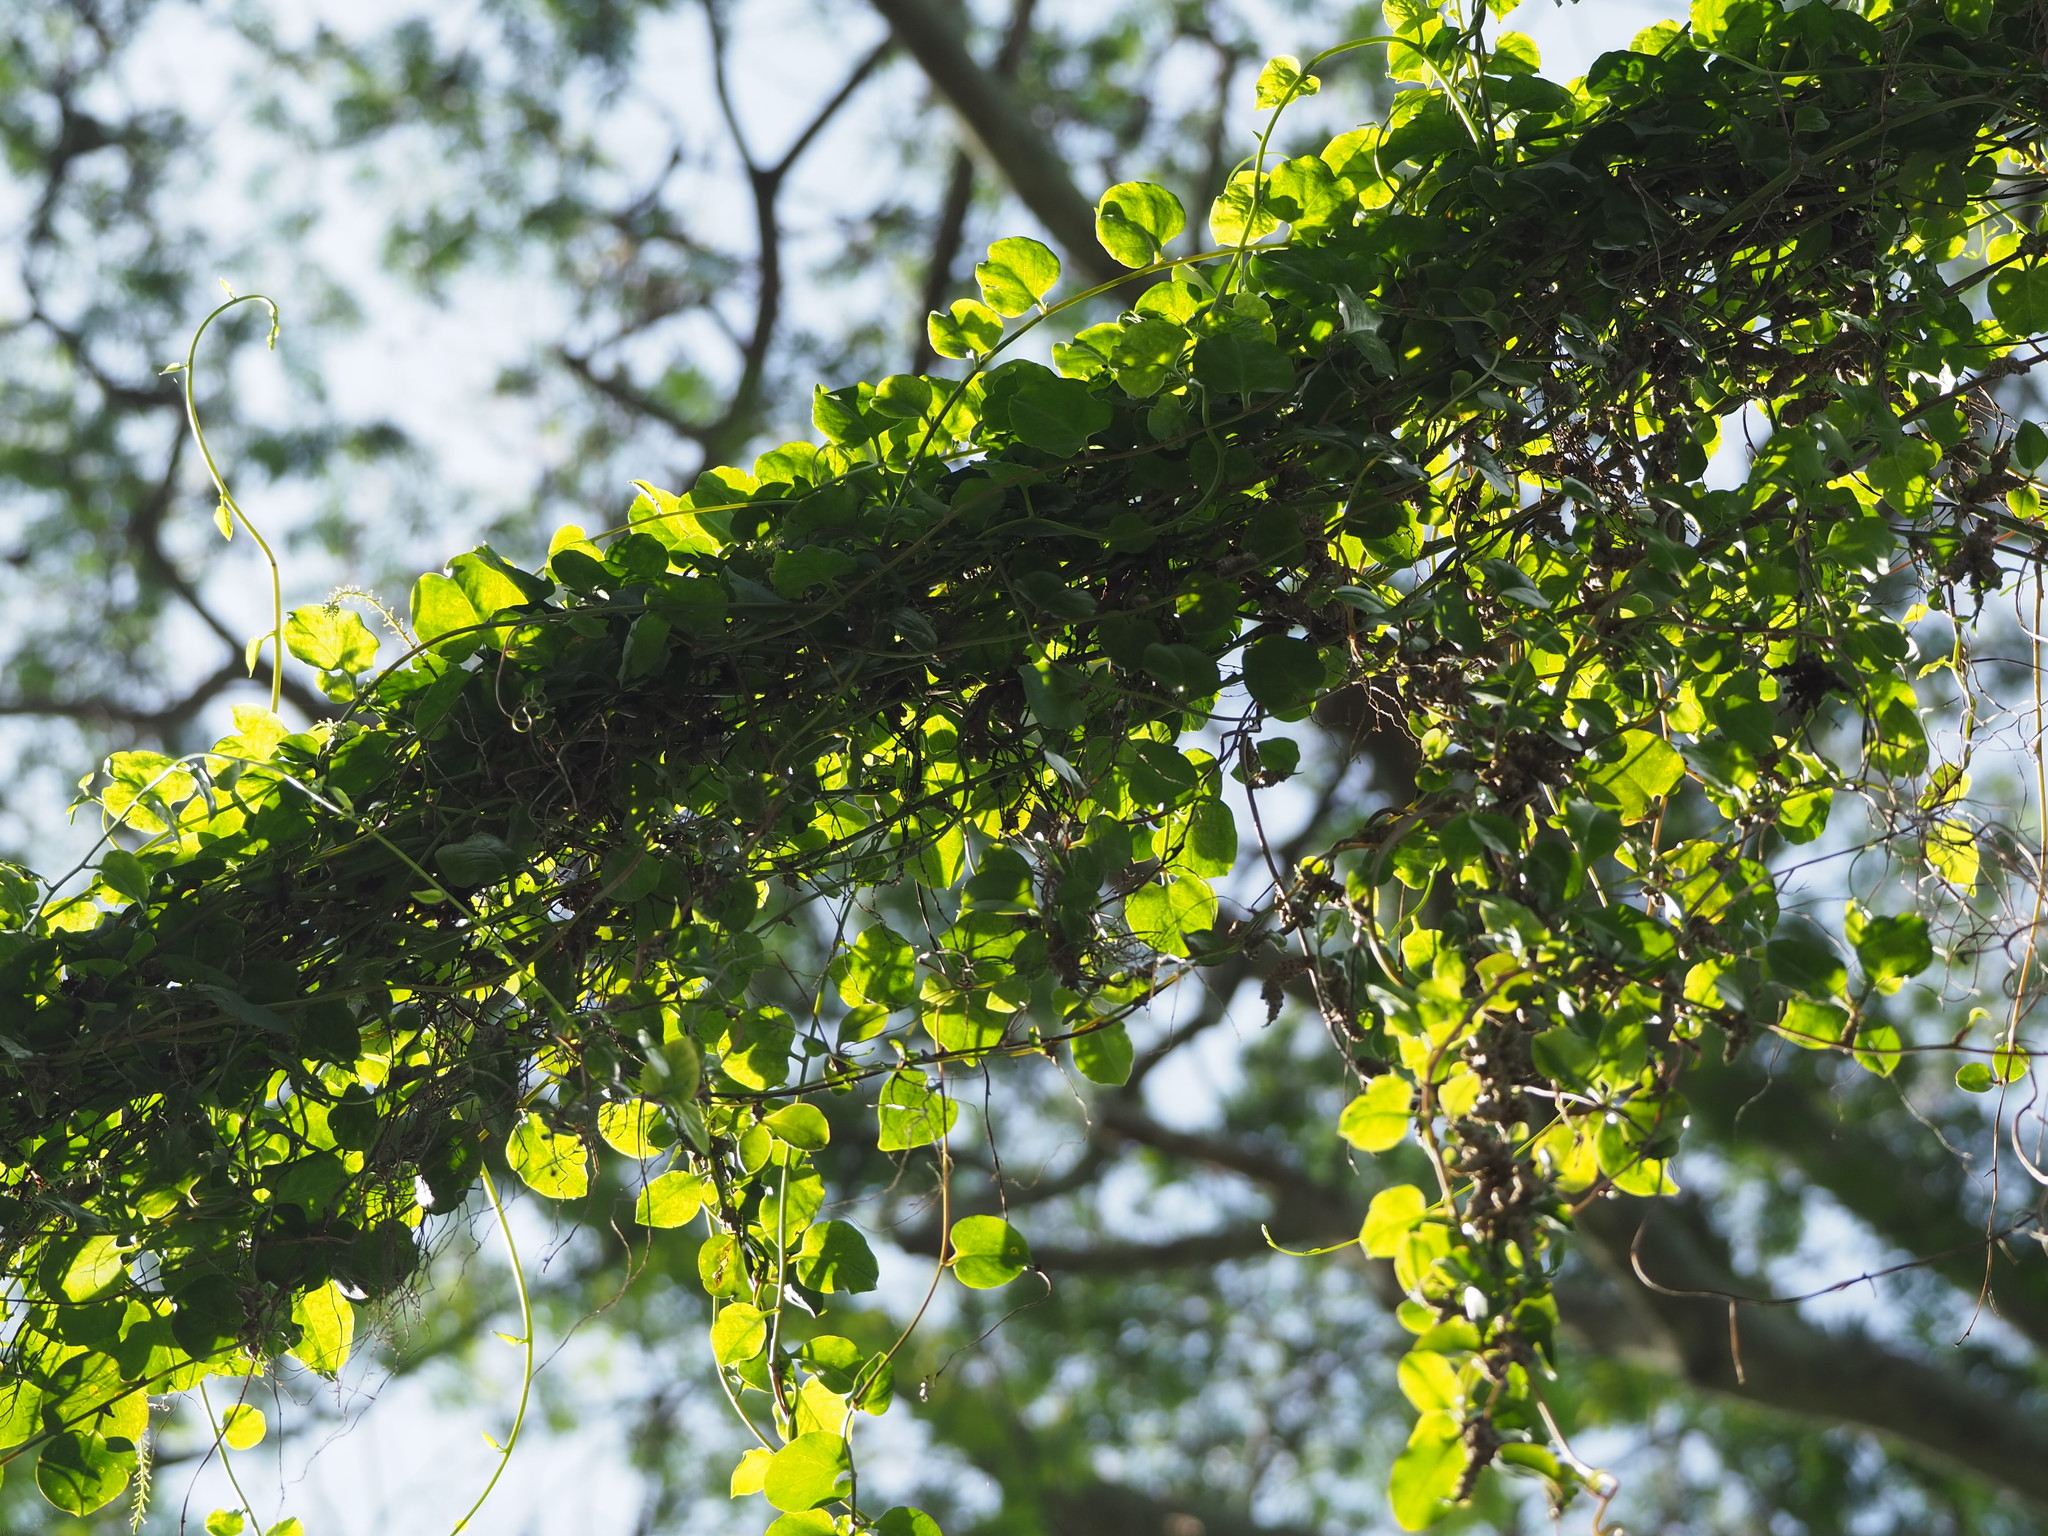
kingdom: Plantae
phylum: Tracheophyta
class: Magnoliopsida
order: Caryophyllales
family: Basellaceae
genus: Anredera
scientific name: Anredera cordifolia
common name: Heartleaf madeiravine
